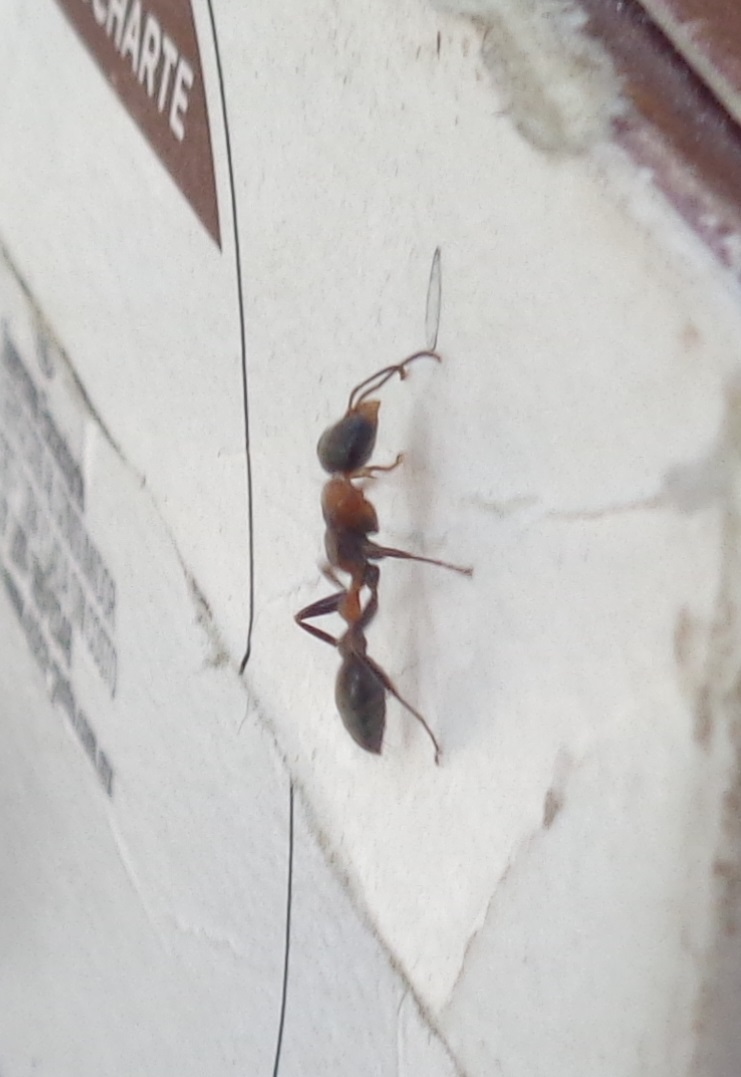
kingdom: Animalia
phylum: Arthropoda
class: Insecta
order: Hymenoptera
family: Formicidae
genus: Pseudomyrmex
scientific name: Pseudomyrmex gracilis
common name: Graceful twig ant
